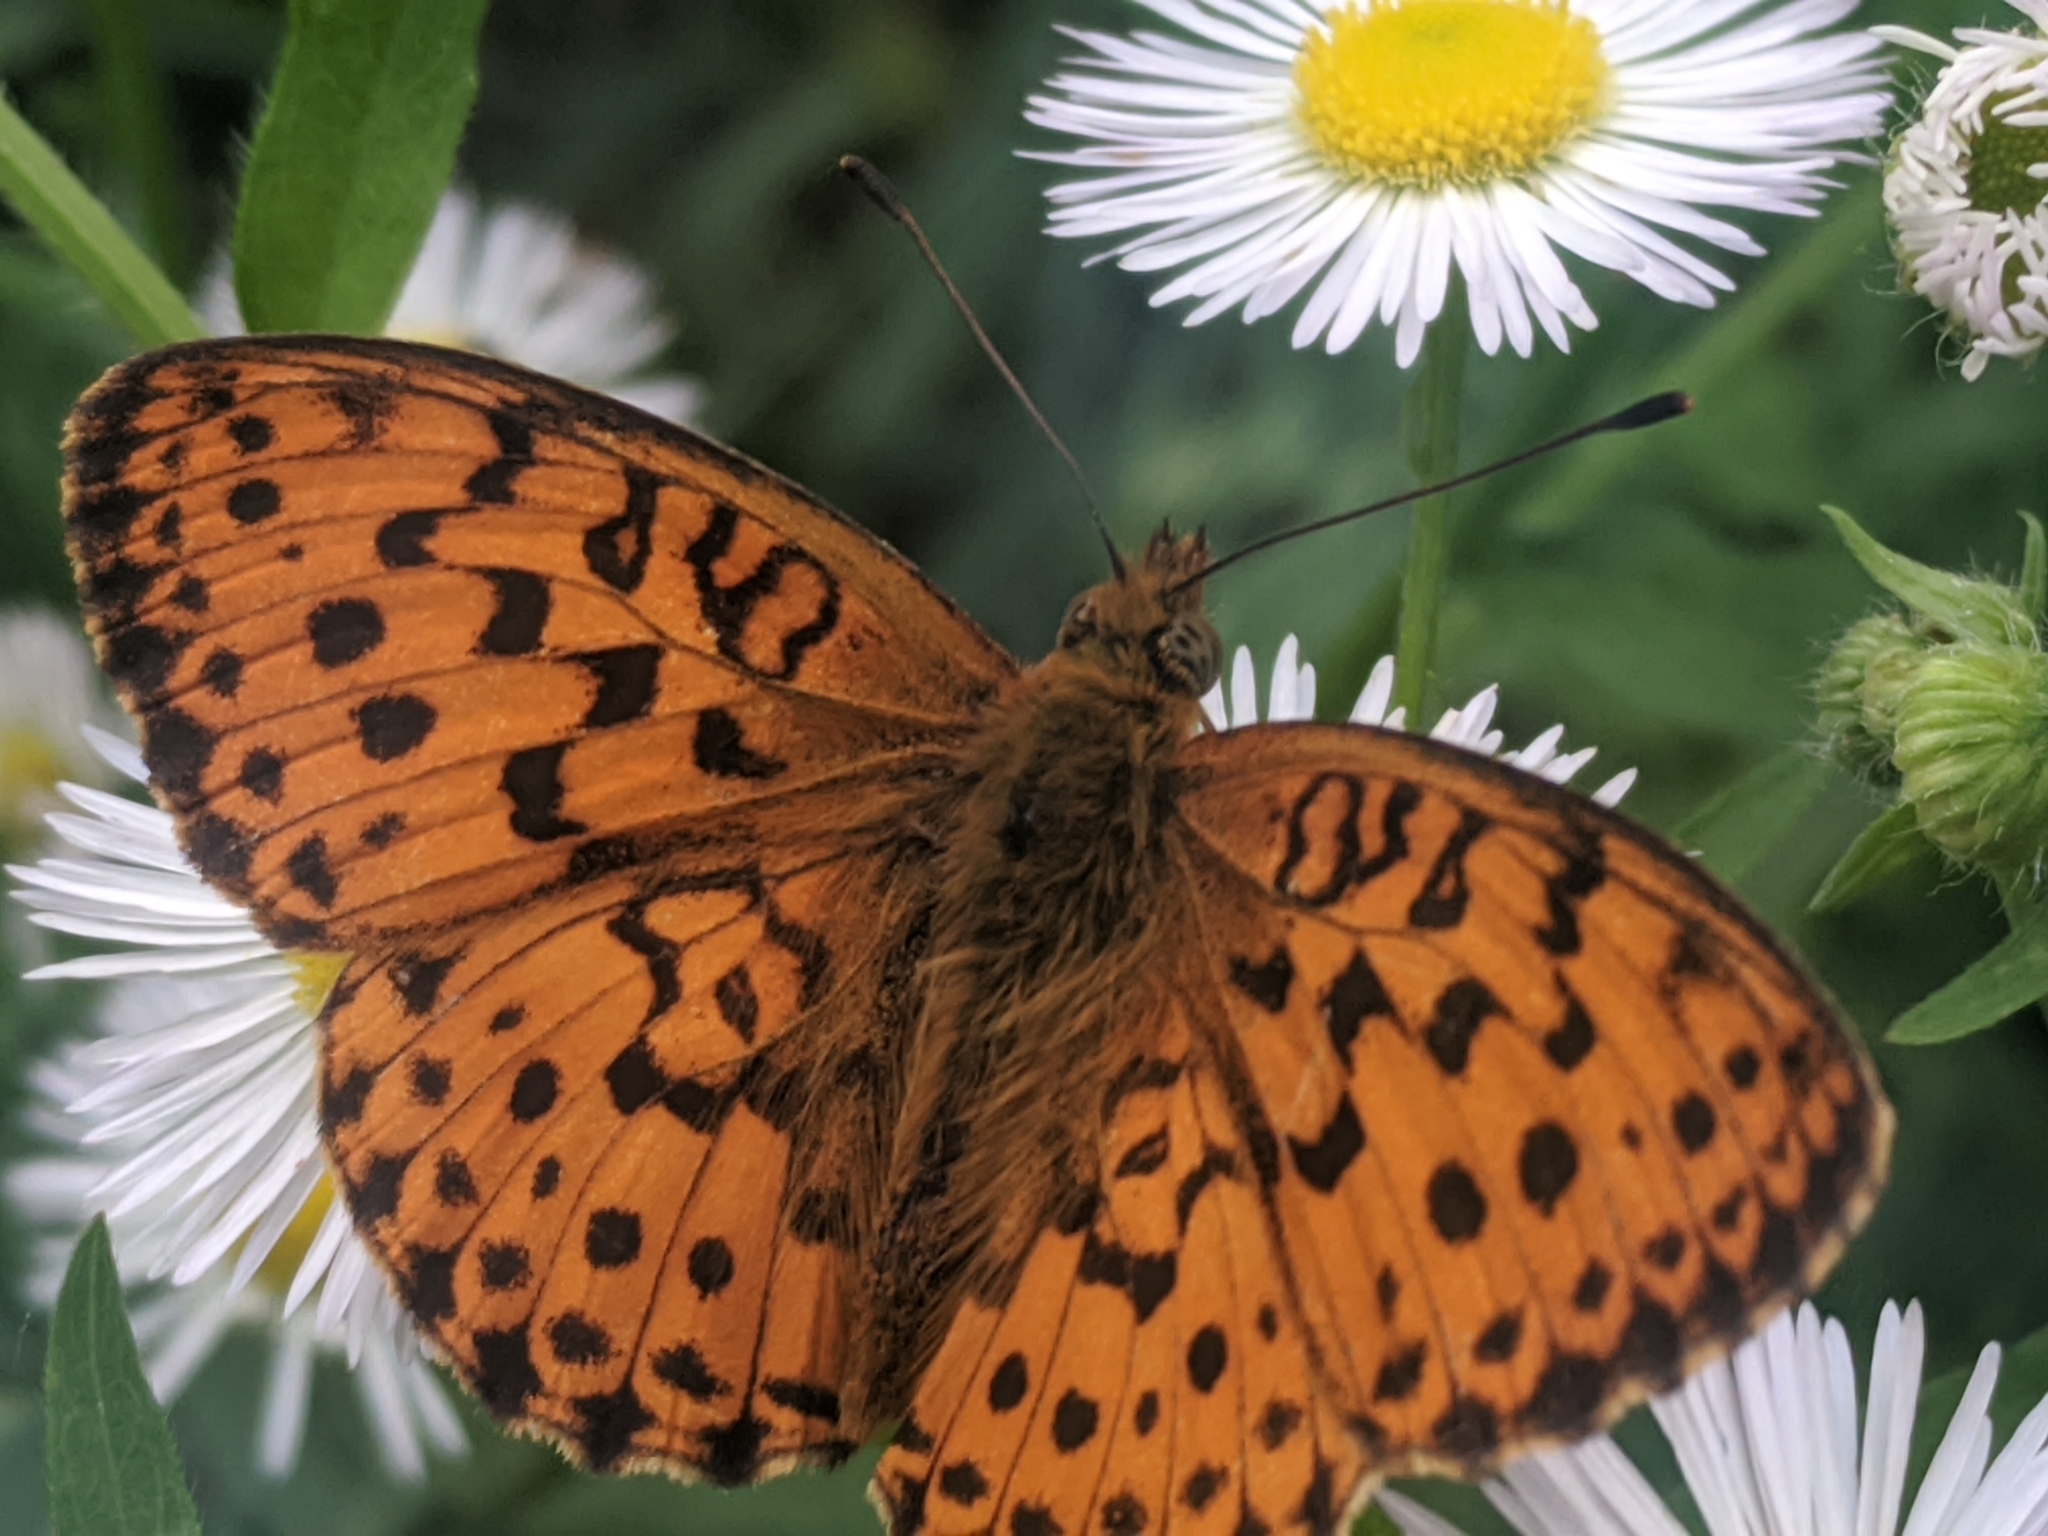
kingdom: Animalia
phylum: Arthropoda
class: Insecta
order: Lepidoptera
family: Nymphalidae
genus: Brenthis
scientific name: Brenthis daphne
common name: Marbled fritillary
